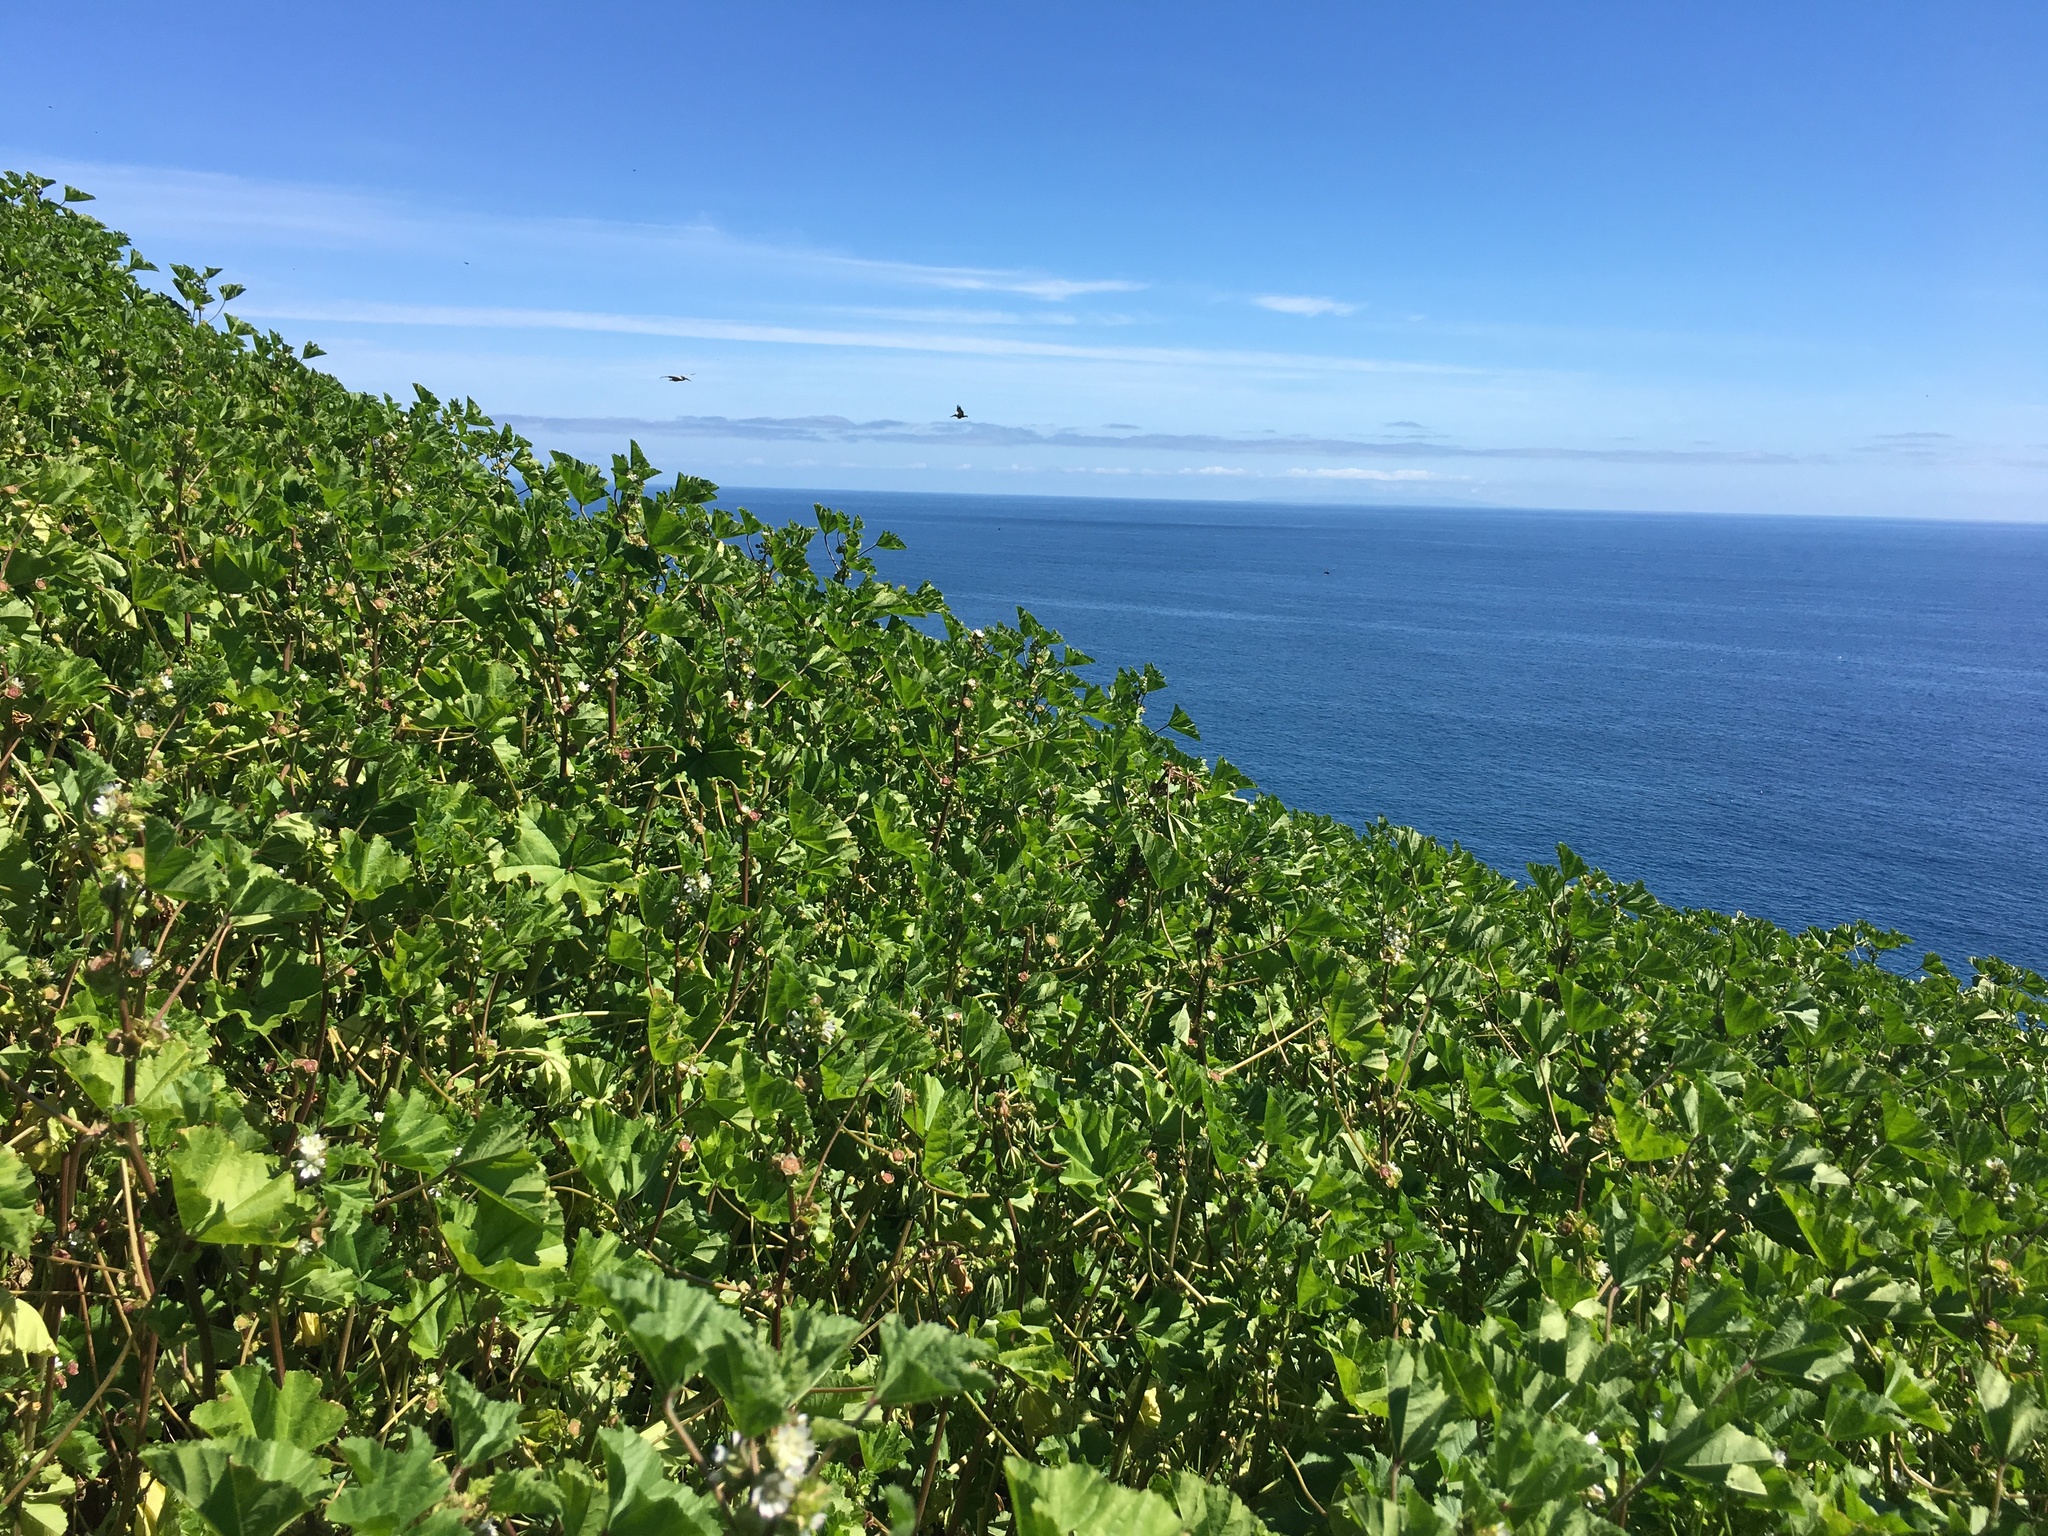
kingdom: Plantae
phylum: Tracheophyta
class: Magnoliopsida
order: Malvales
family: Malvaceae
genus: Malva
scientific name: Malva parviflora
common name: Least mallow
